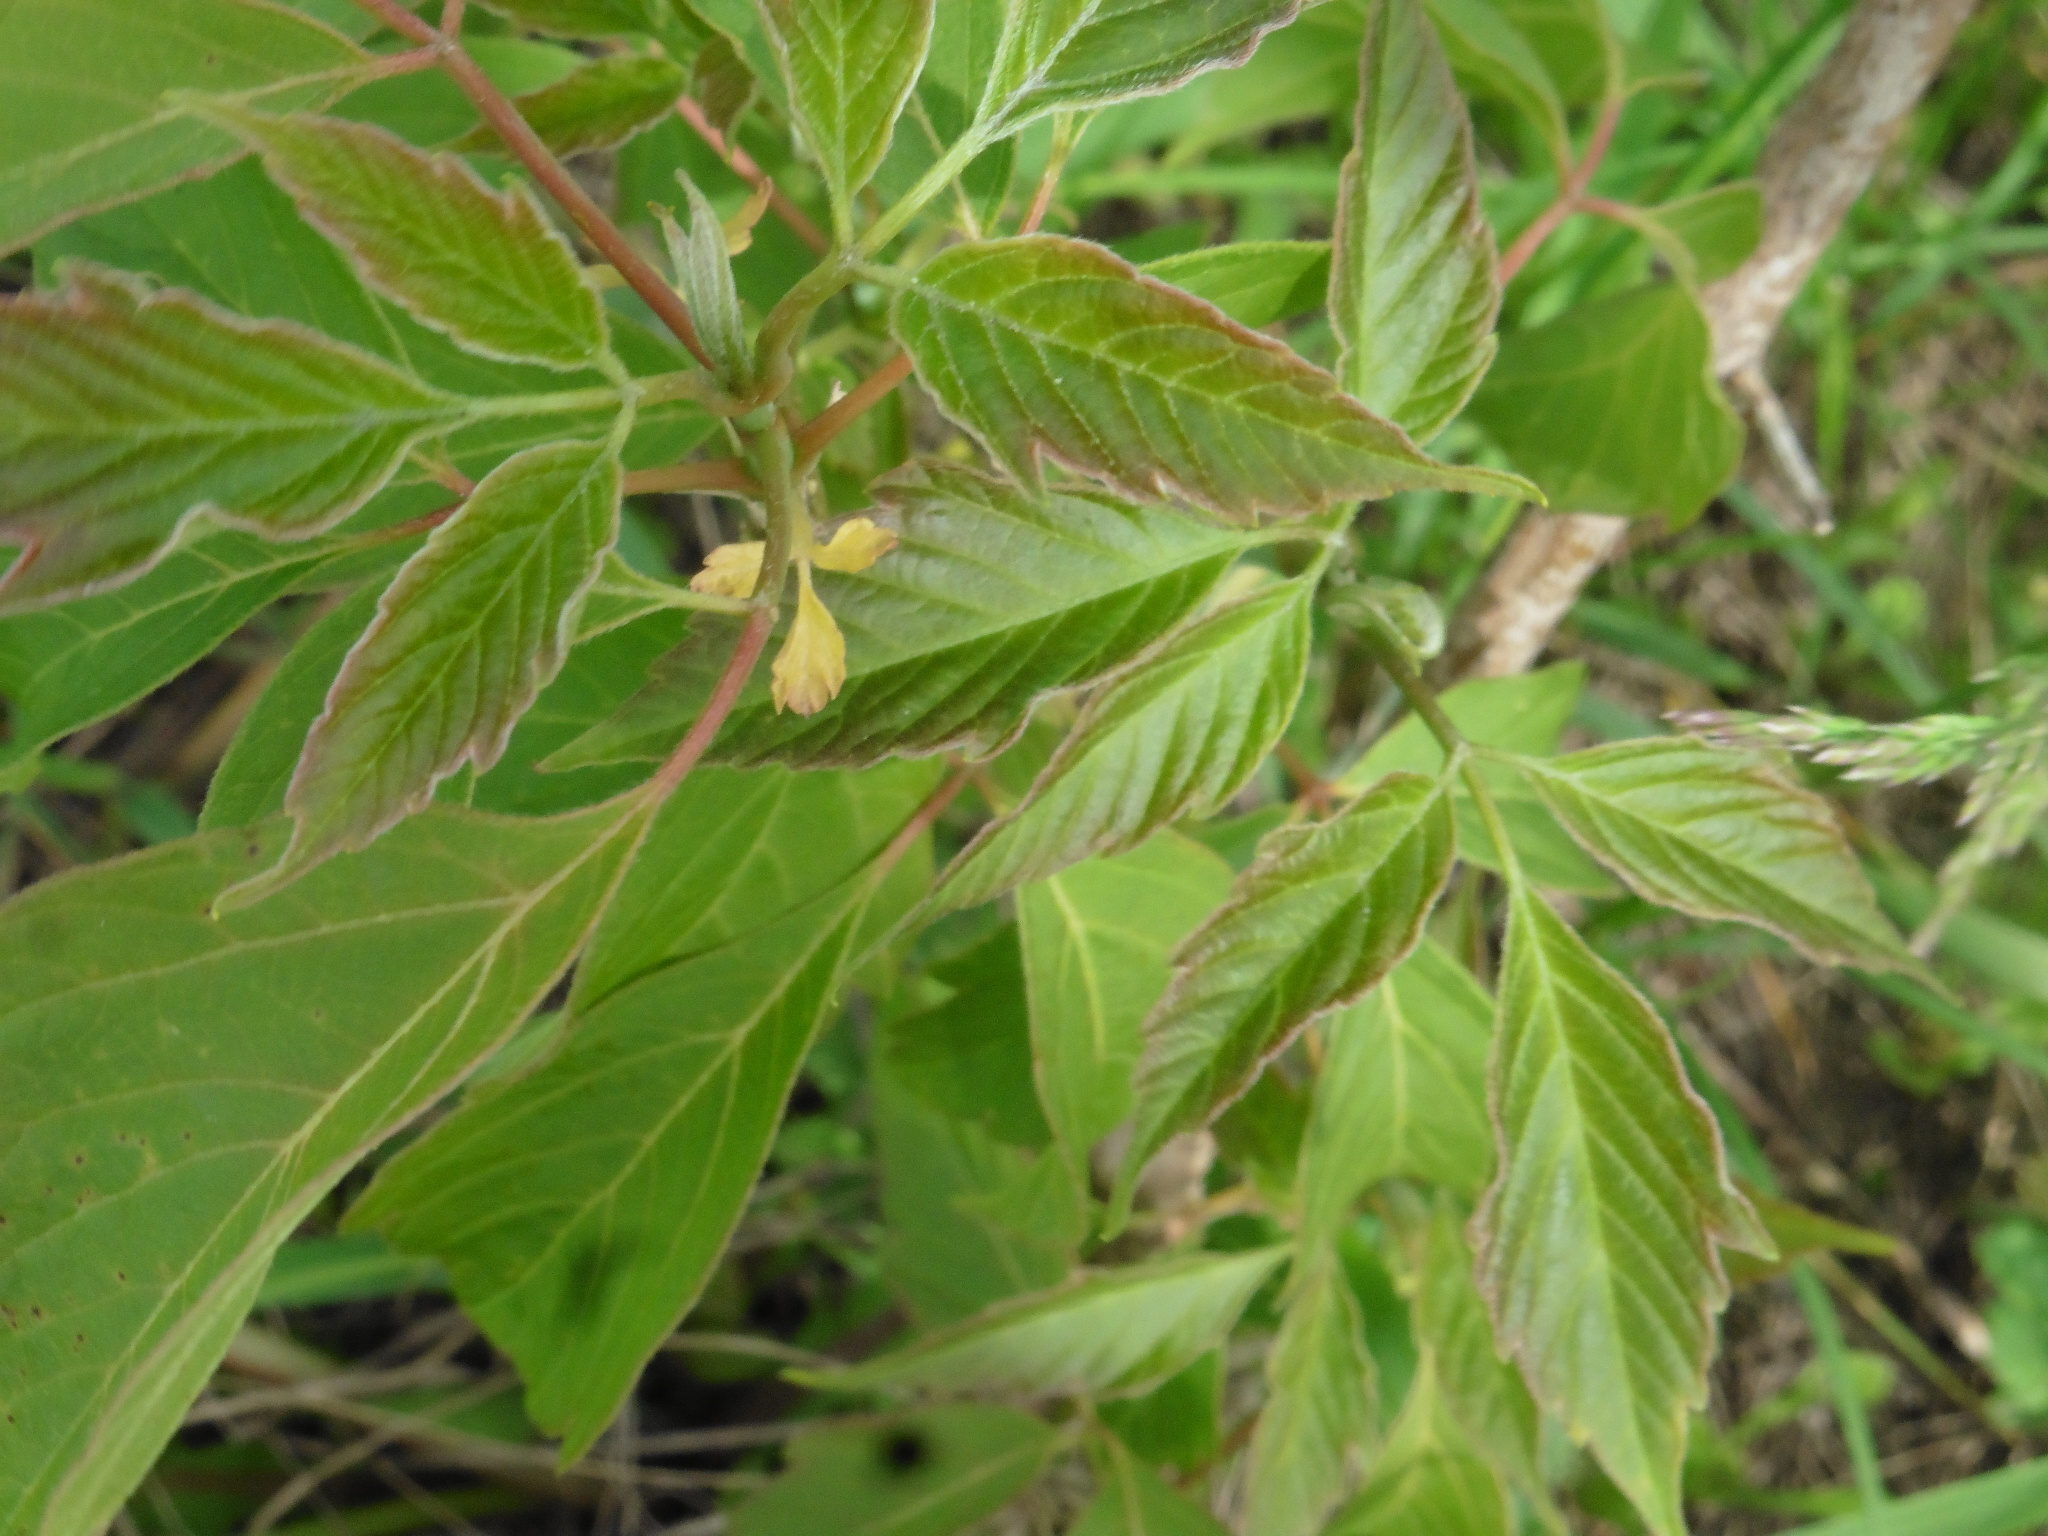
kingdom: Plantae
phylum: Tracheophyta
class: Magnoliopsida
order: Sapindales
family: Sapindaceae
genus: Acer
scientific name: Acer negundo
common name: Ashleaf maple
